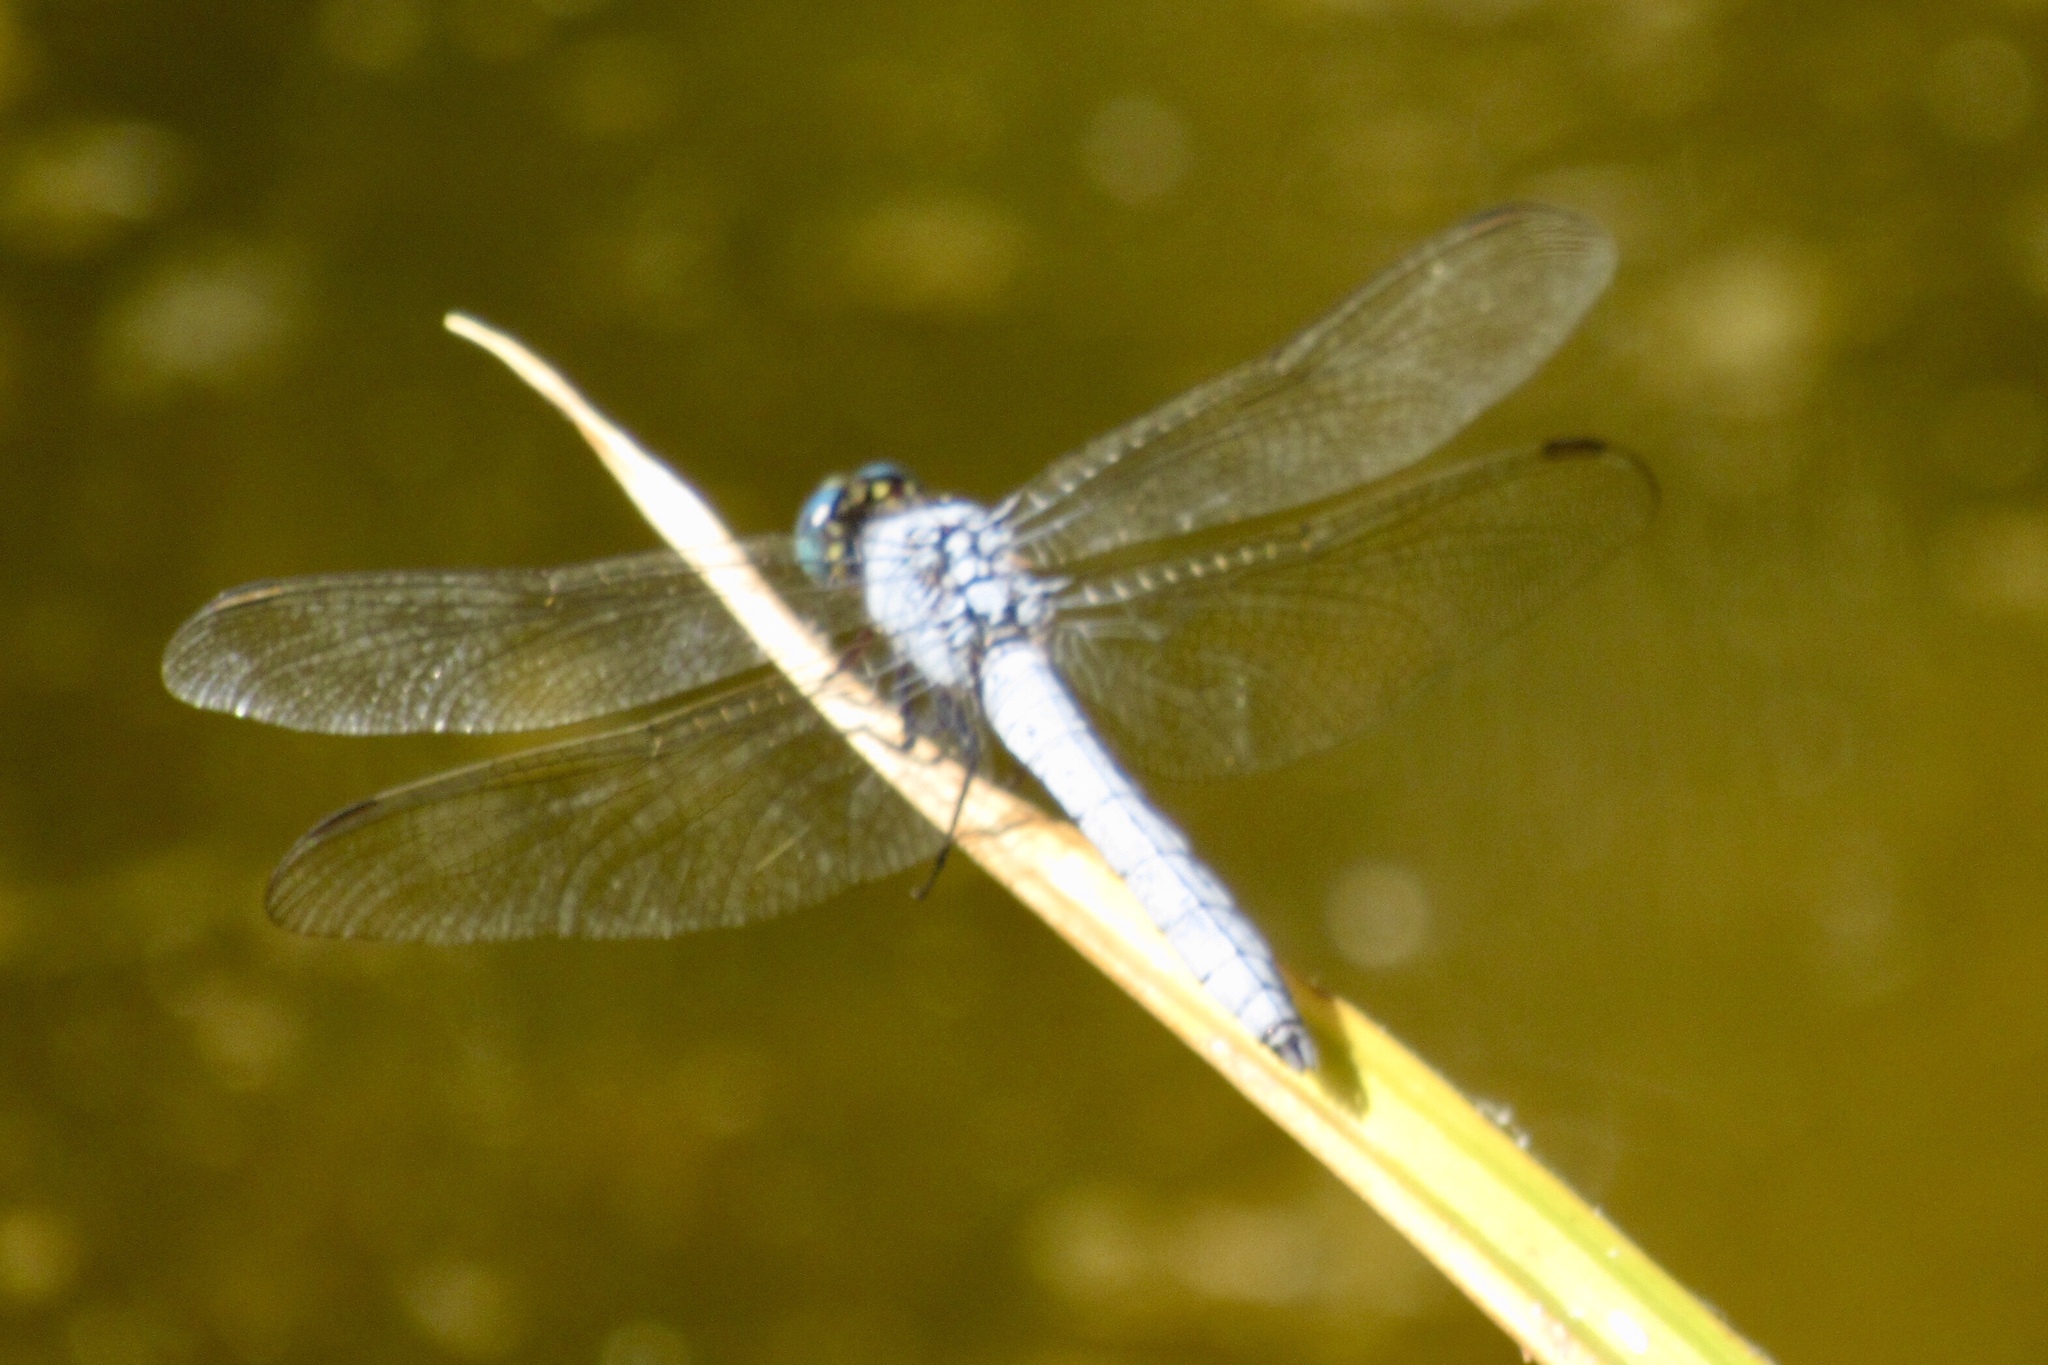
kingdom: Animalia
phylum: Arthropoda
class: Insecta
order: Odonata
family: Libellulidae
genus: Erythemis
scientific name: Erythemis collocata
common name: Western pondhawk
